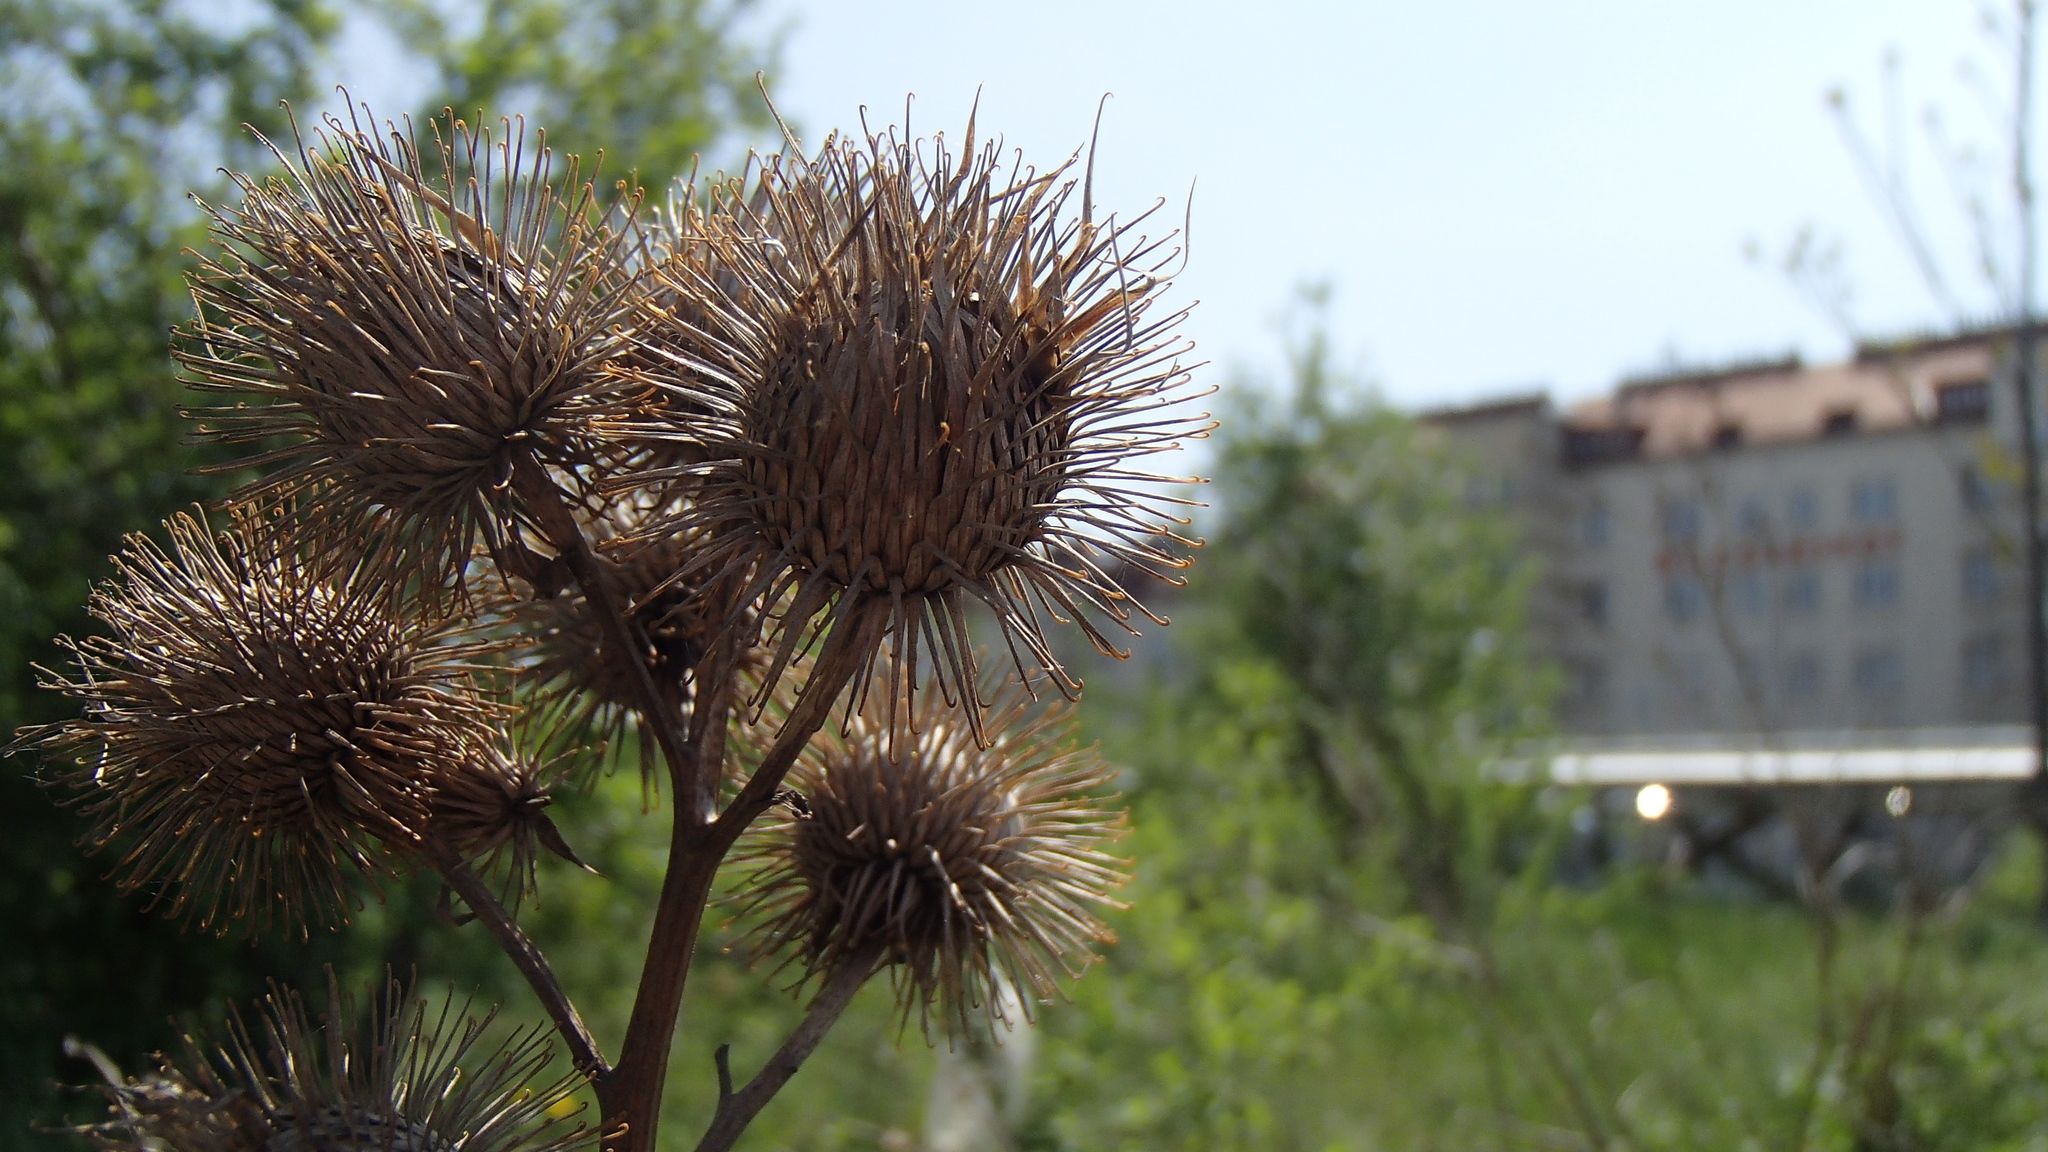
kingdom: Plantae
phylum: Tracheophyta
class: Magnoliopsida
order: Asterales
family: Asteraceae
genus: Arctium
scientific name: Arctium lappa
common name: Greater burdock
